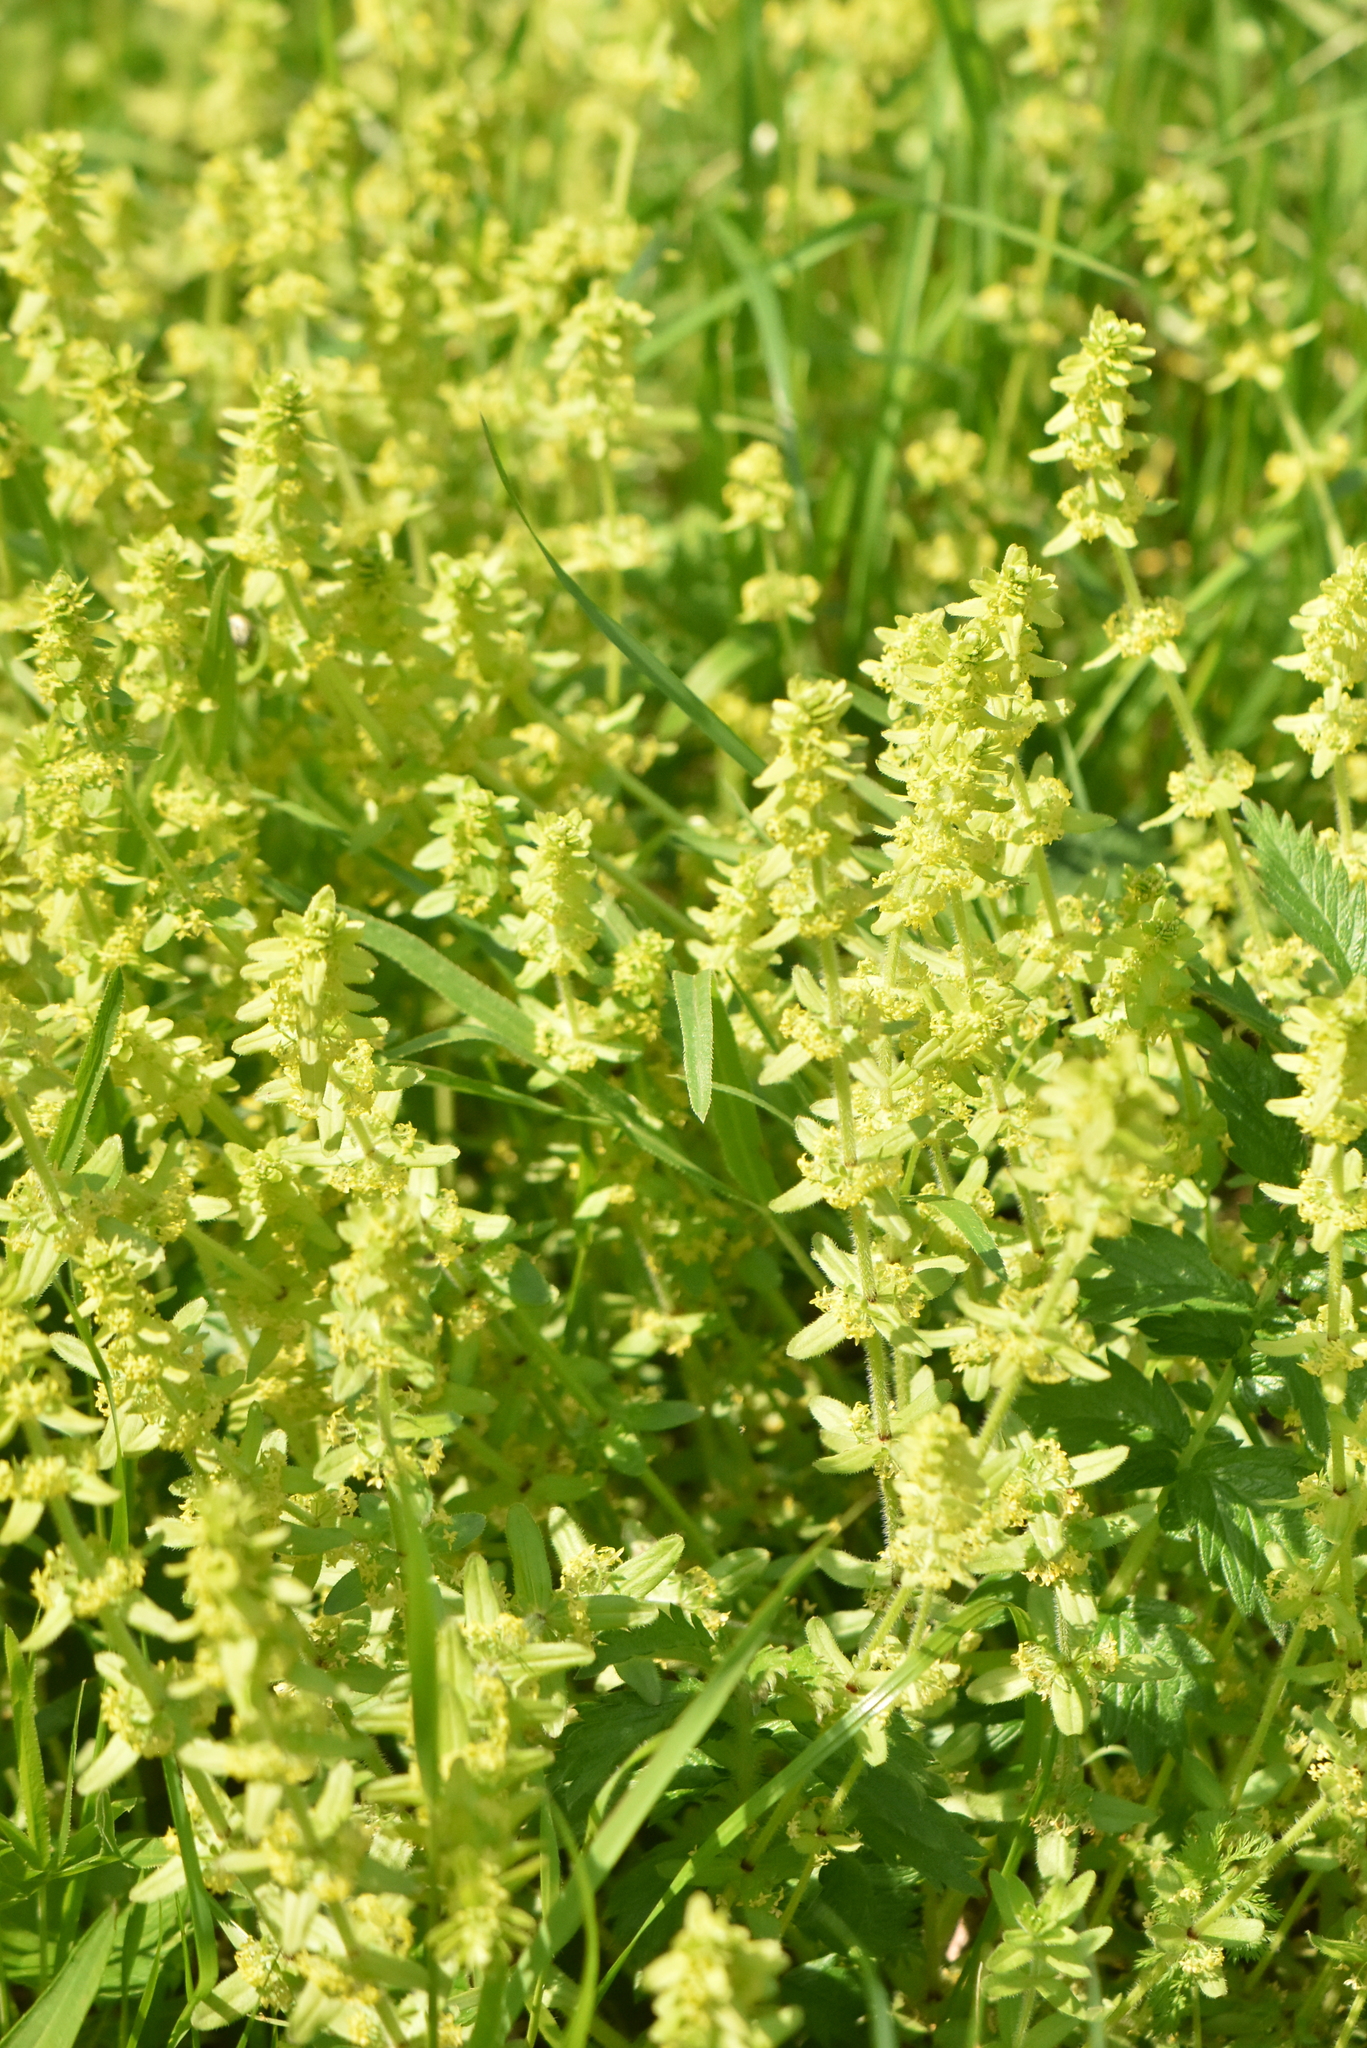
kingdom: Plantae
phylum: Tracheophyta
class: Magnoliopsida
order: Gentianales
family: Rubiaceae
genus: Cruciata
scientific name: Cruciata laevipes
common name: Crosswort
